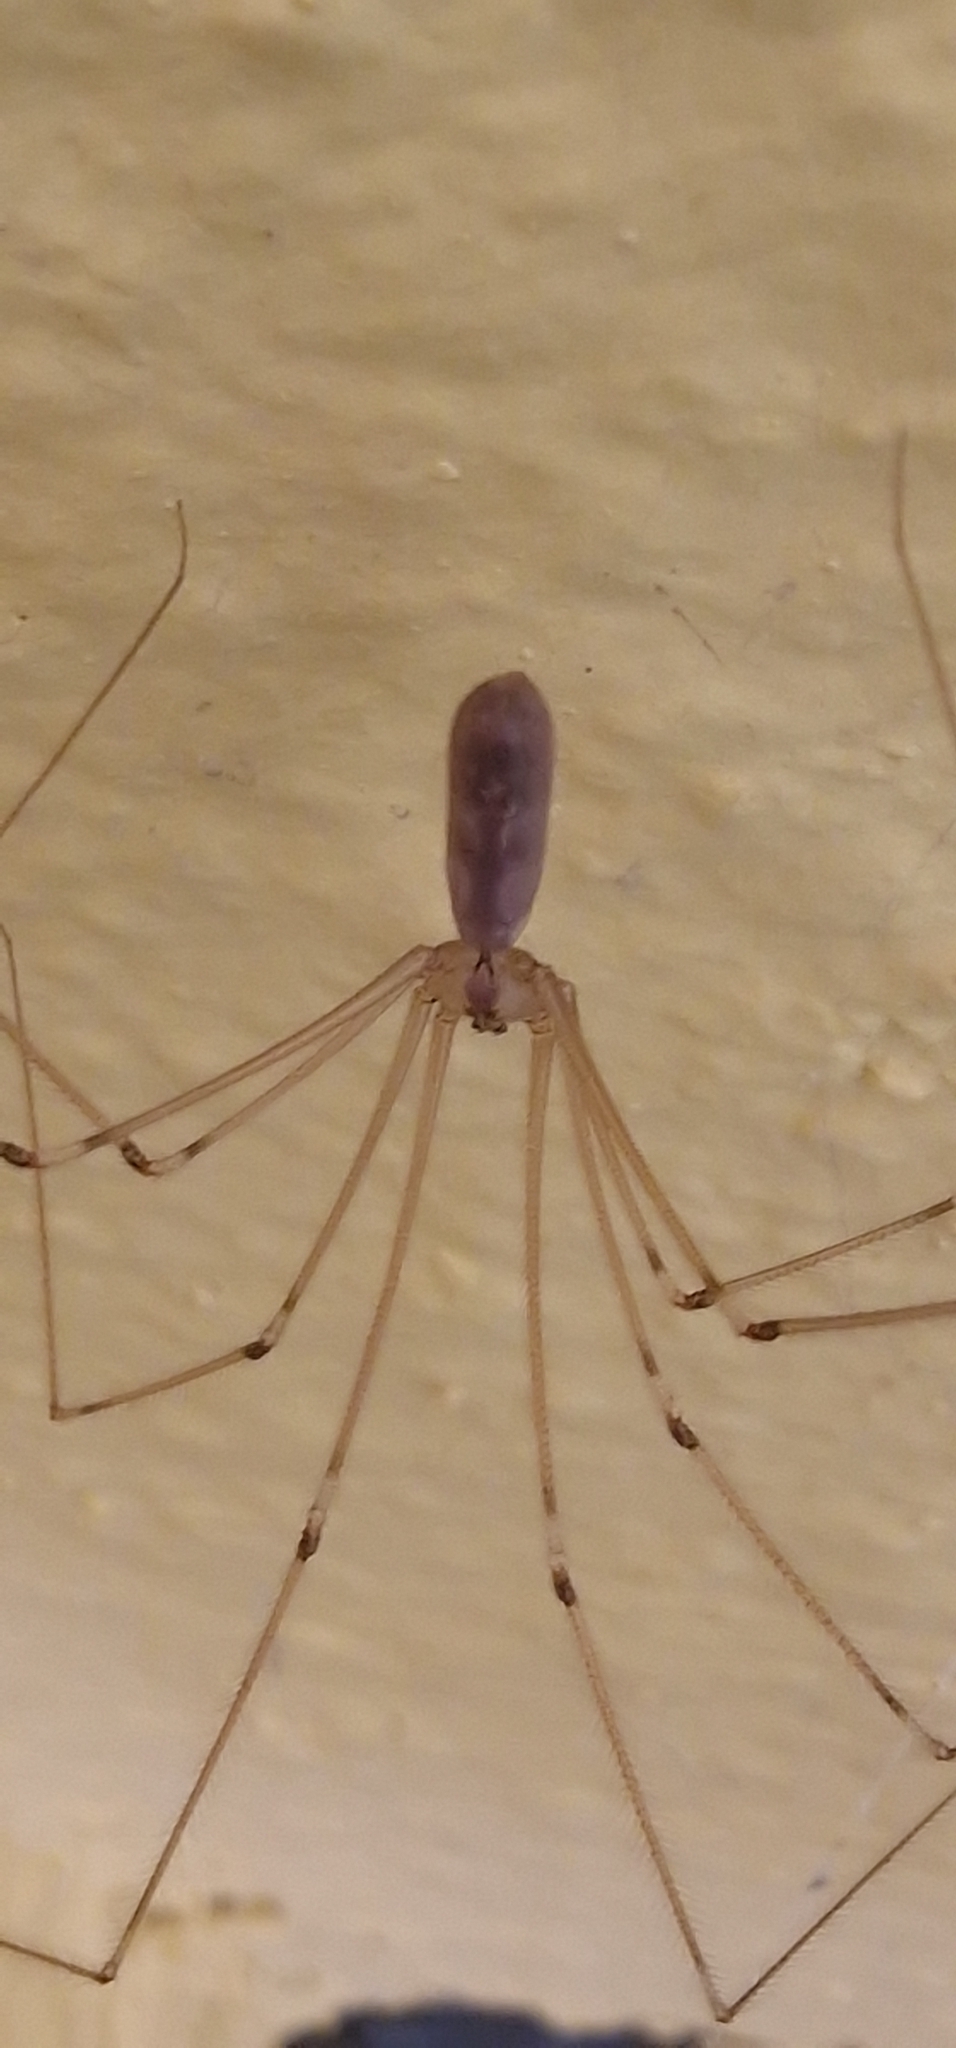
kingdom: Animalia
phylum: Arthropoda
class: Arachnida
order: Araneae
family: Pholcidae
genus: Pholcus
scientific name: Pholcus phalangioides
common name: Longbodied cellar spider
